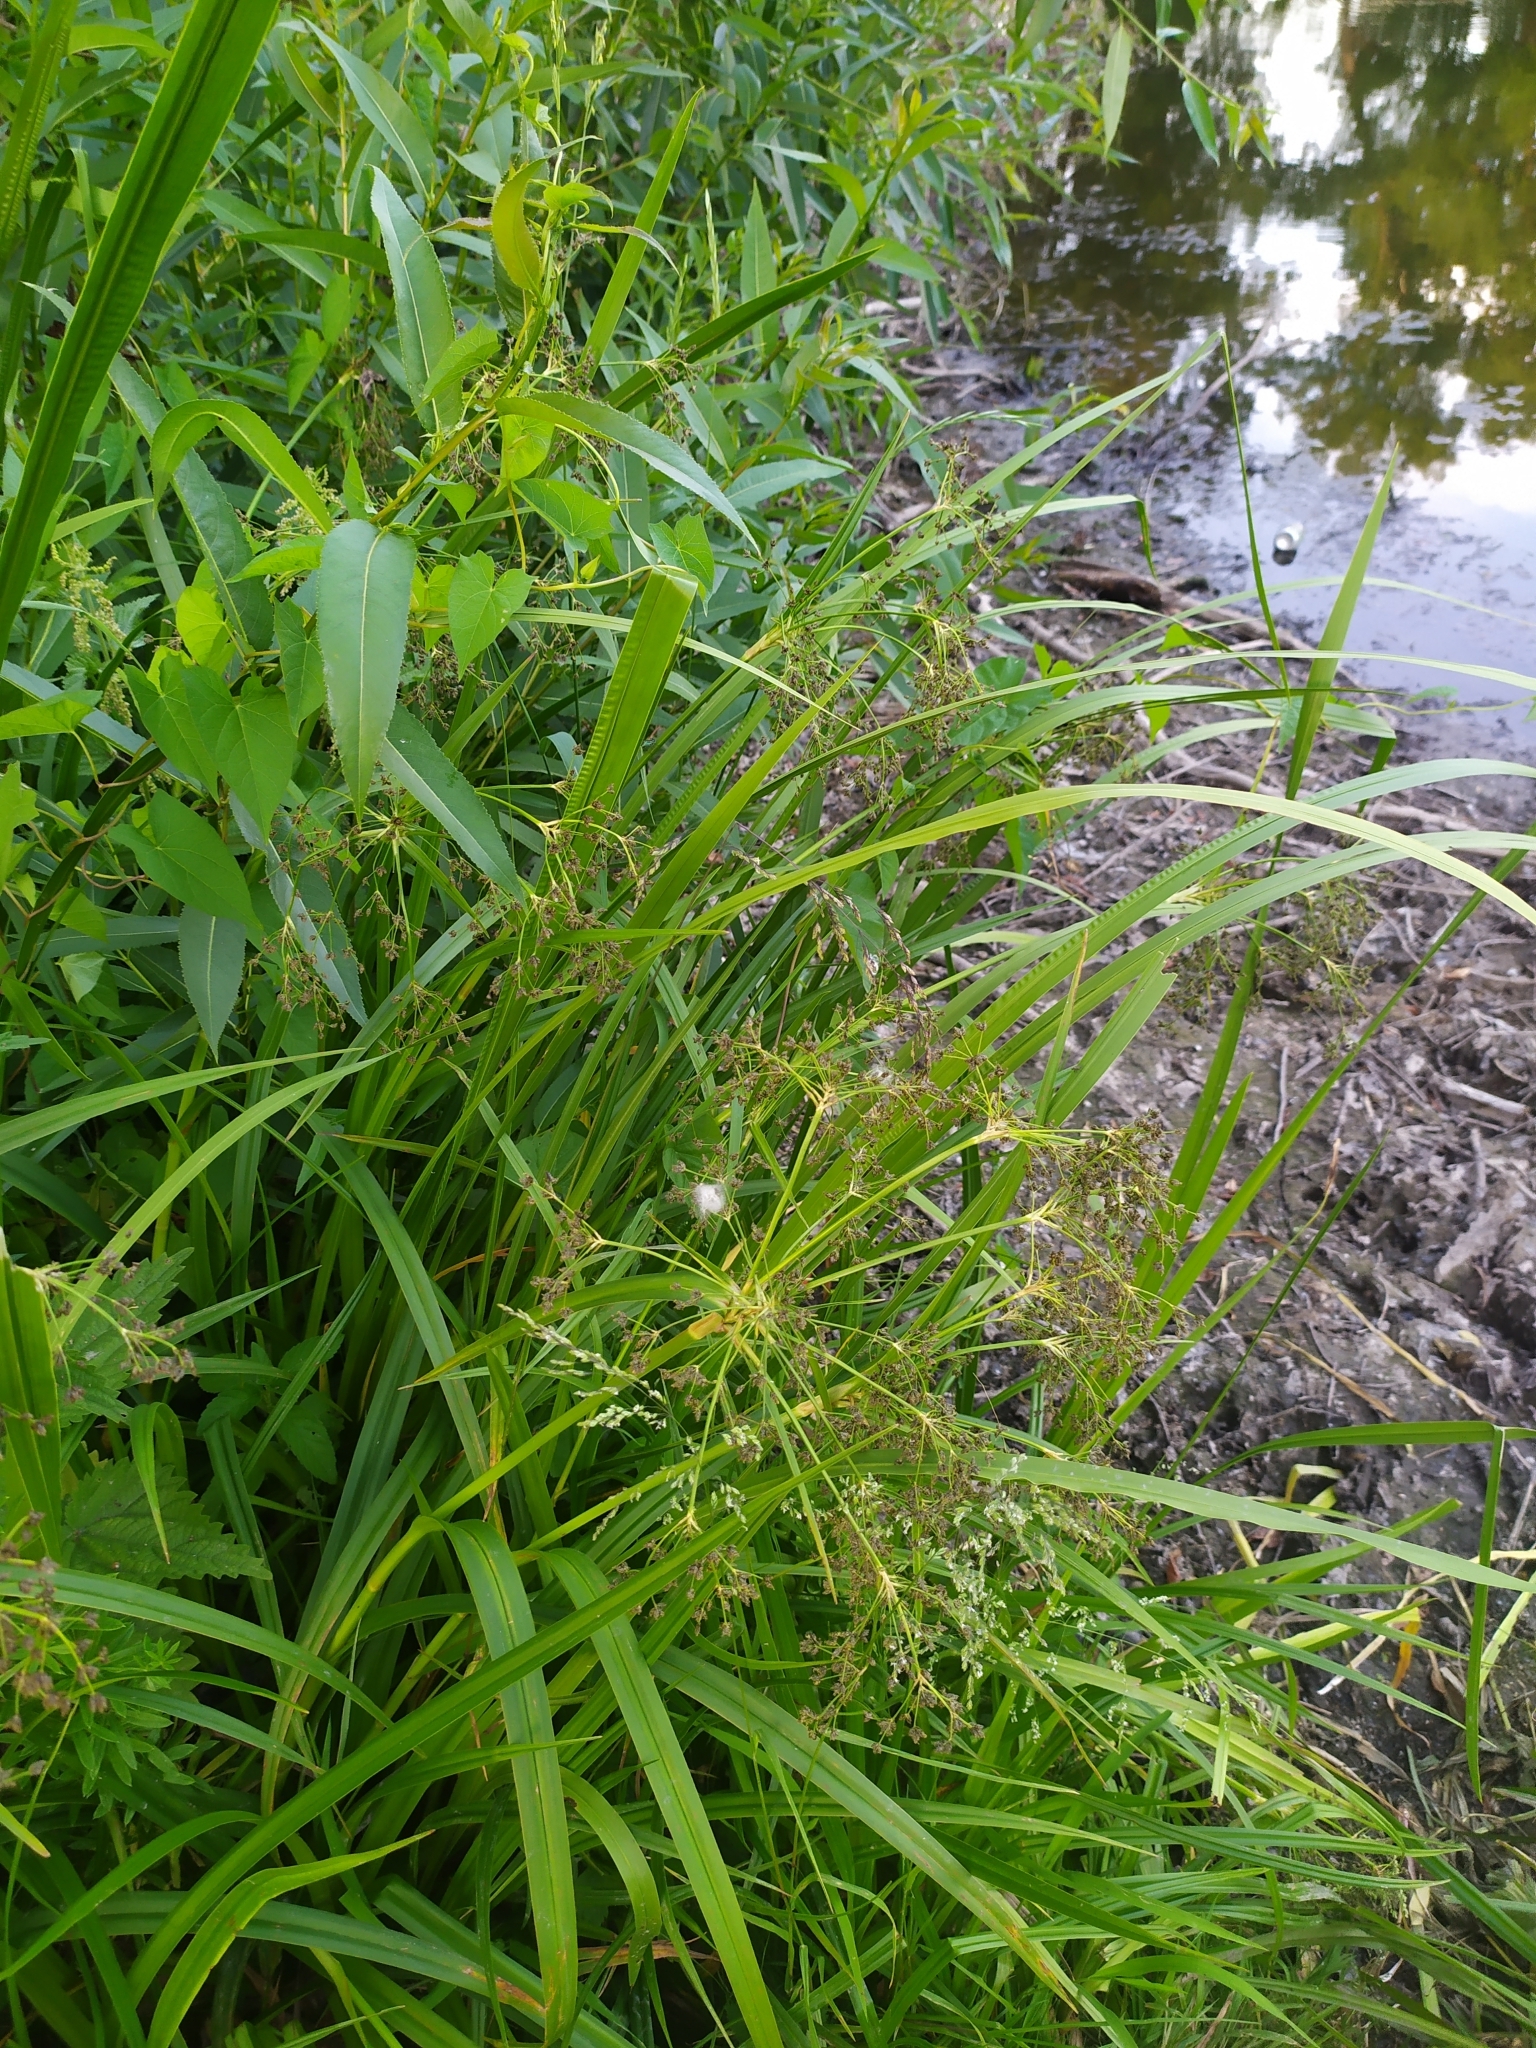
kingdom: Plantae
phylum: Tracheophyta
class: Liliopsida
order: Poales
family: Cyperaceae
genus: Scirpus
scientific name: Scirpus sylvaticus
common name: Wood club-rush
